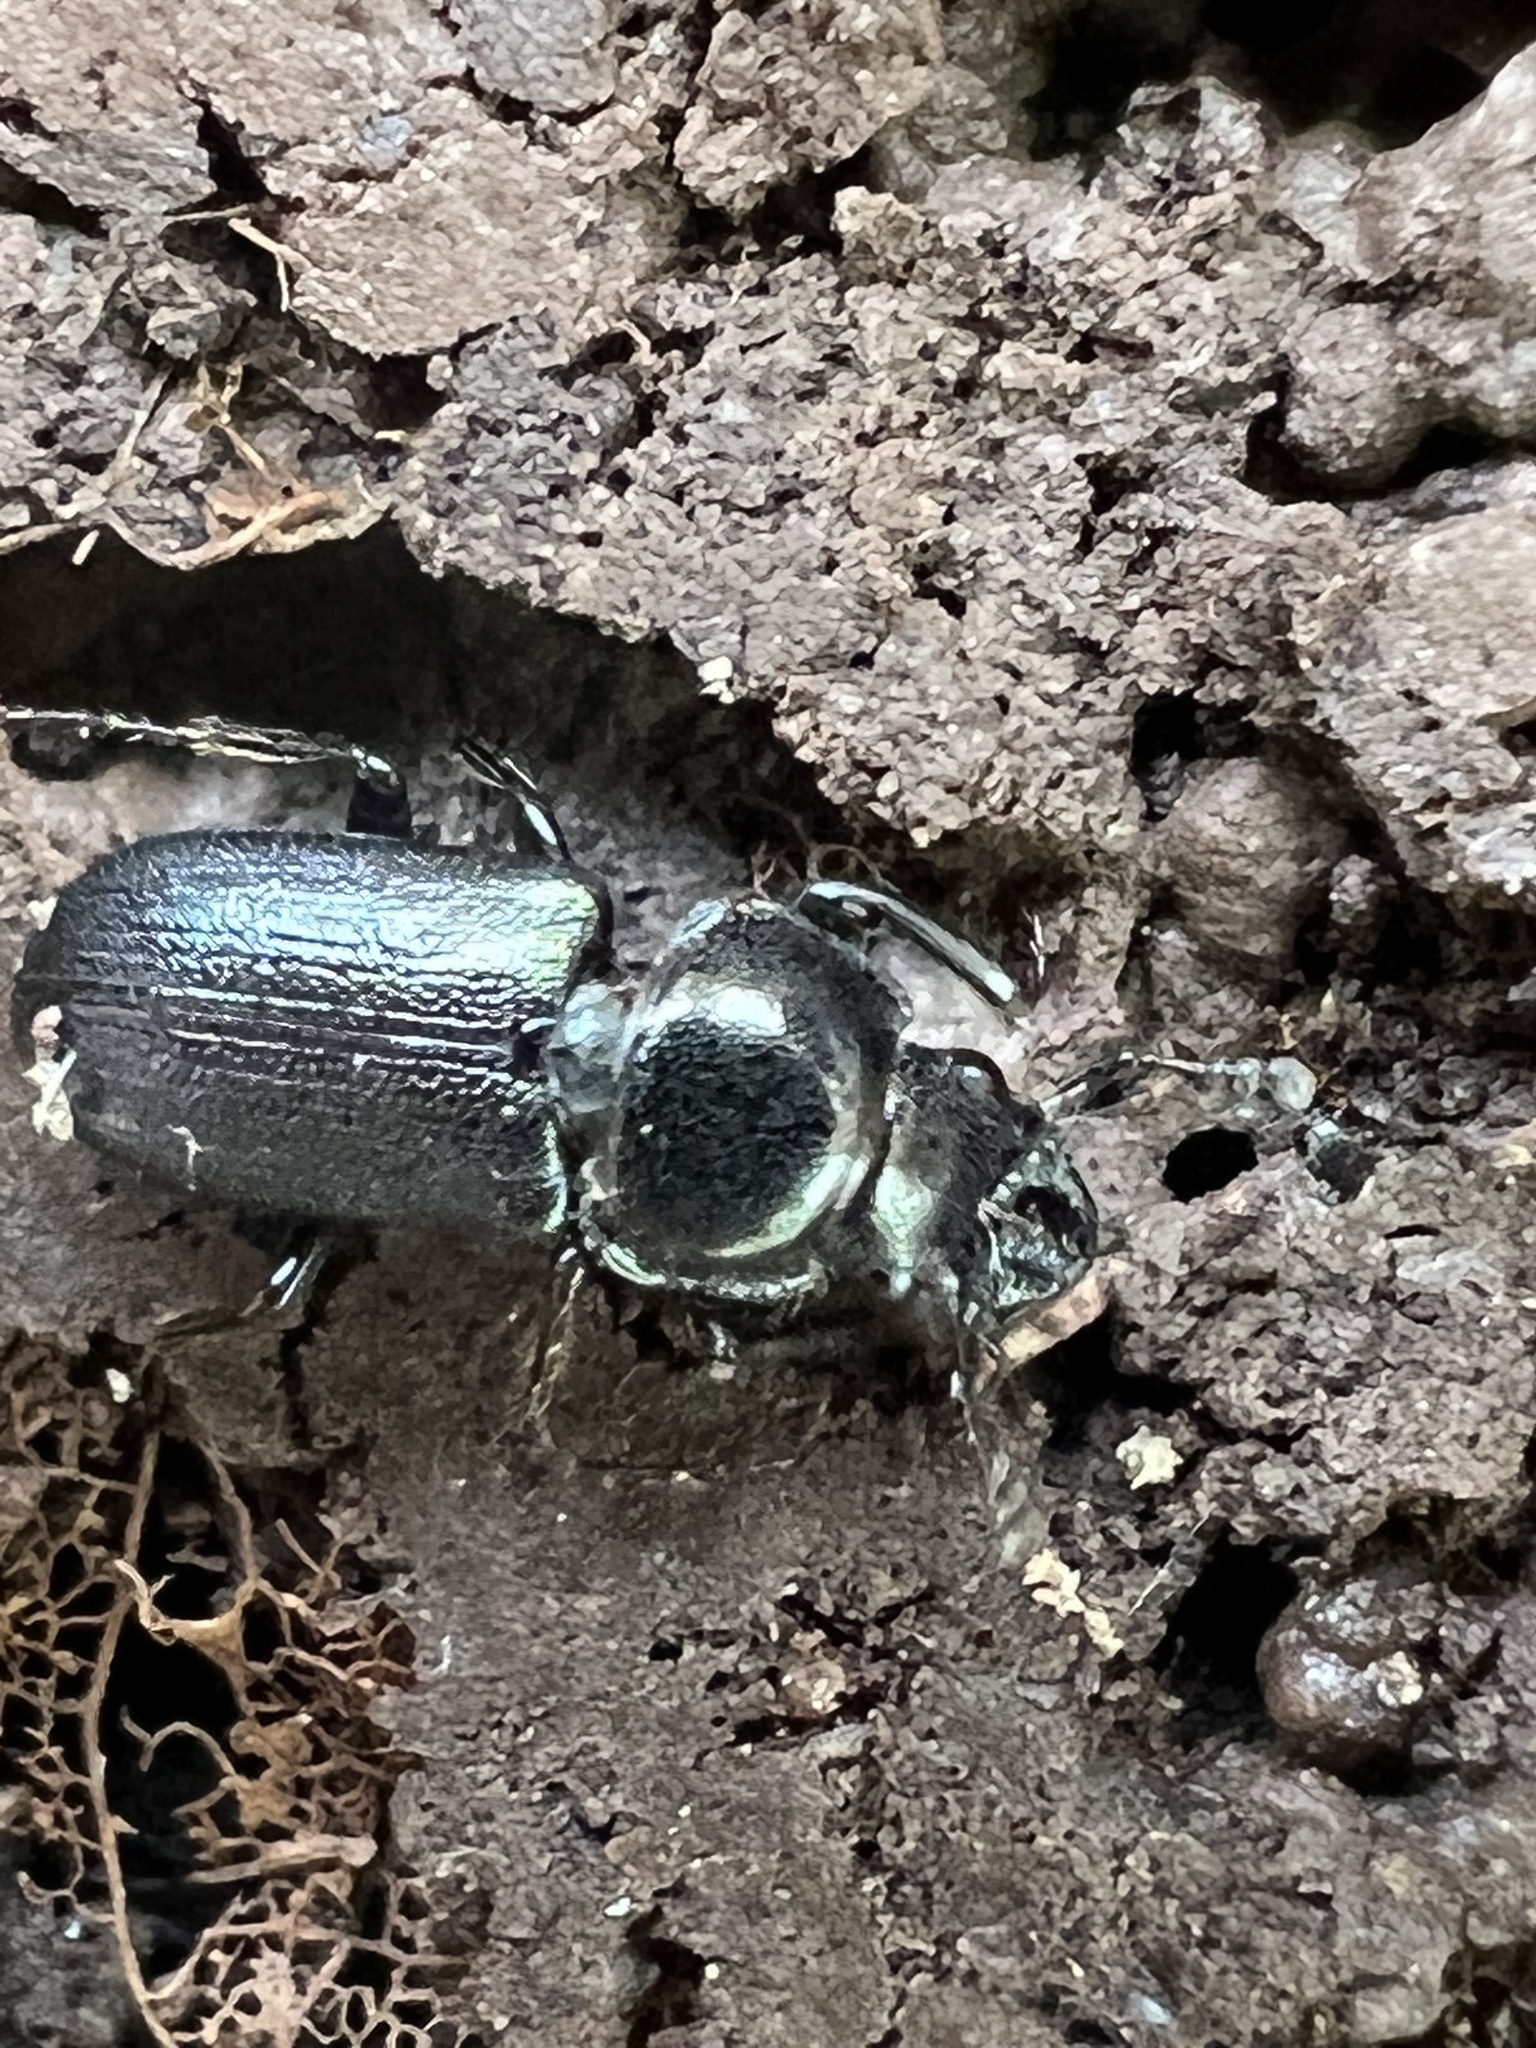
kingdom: Animalia
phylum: Arthropoda
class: Insecta
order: Coleoptera
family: Lucanidae
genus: Platycerus
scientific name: Platycerus quercus
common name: Oak stag beetle
